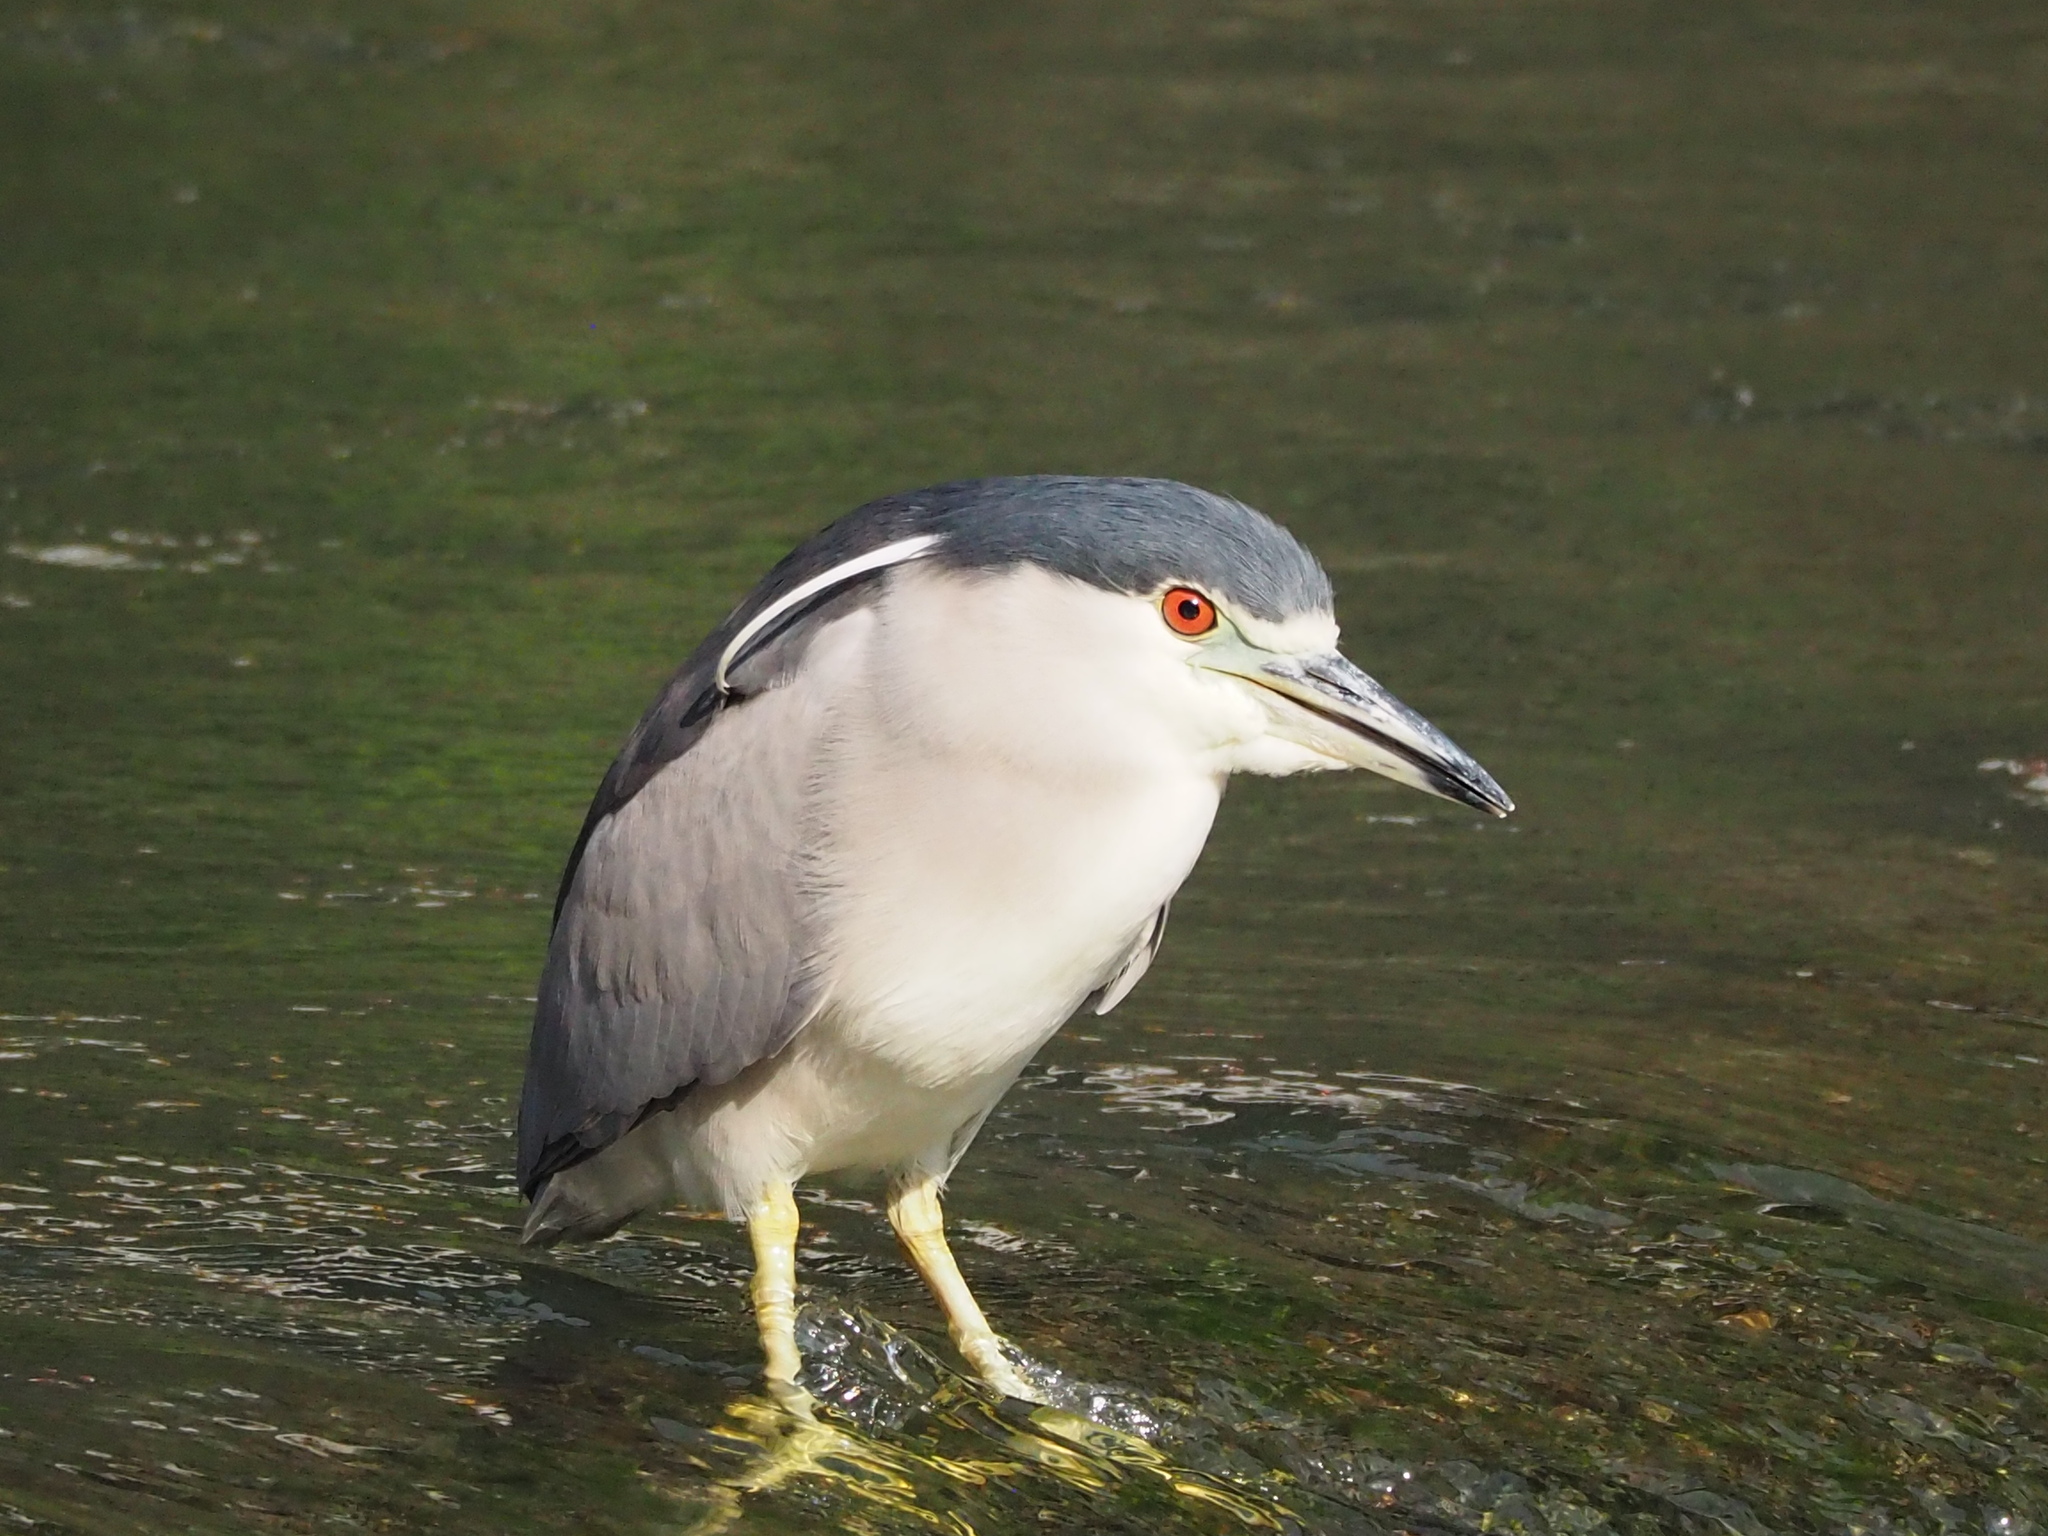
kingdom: Animalia
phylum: Chordata
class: Aves
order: Pelecaniformes
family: Ardeidae
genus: Nycticorax
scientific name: Nycticorax nycticorax
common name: Black-crowned night heron
